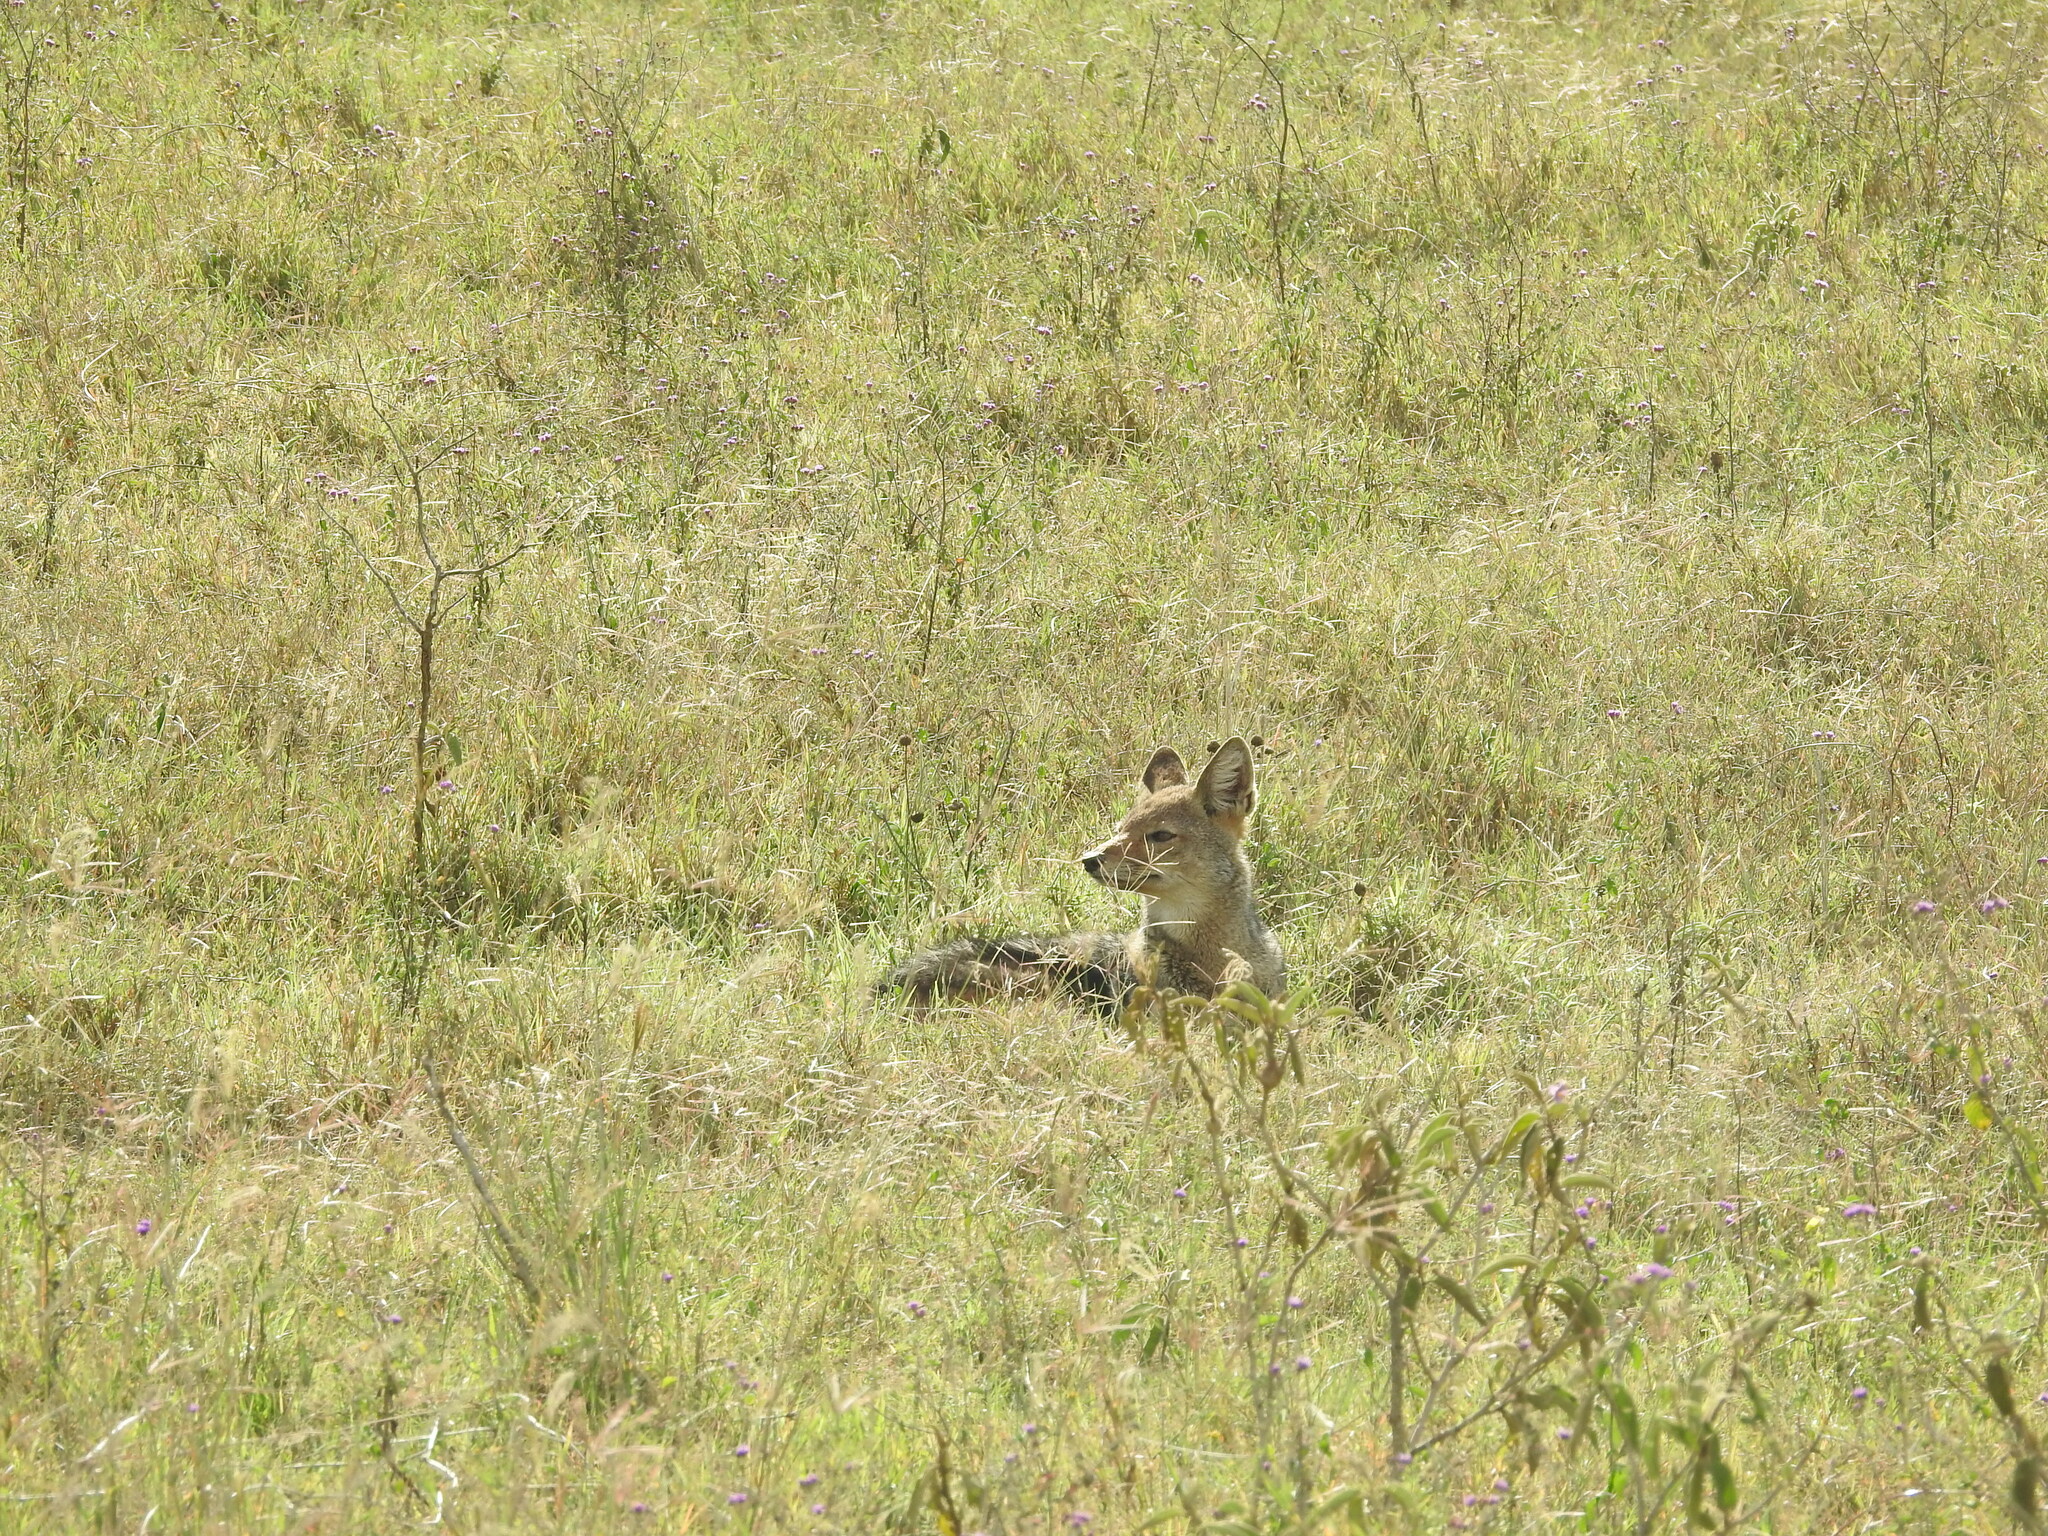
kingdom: Animalia
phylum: Chordata
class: Mammalia
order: Carnivora
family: Canidae
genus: Lupulella
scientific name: Lupulella
